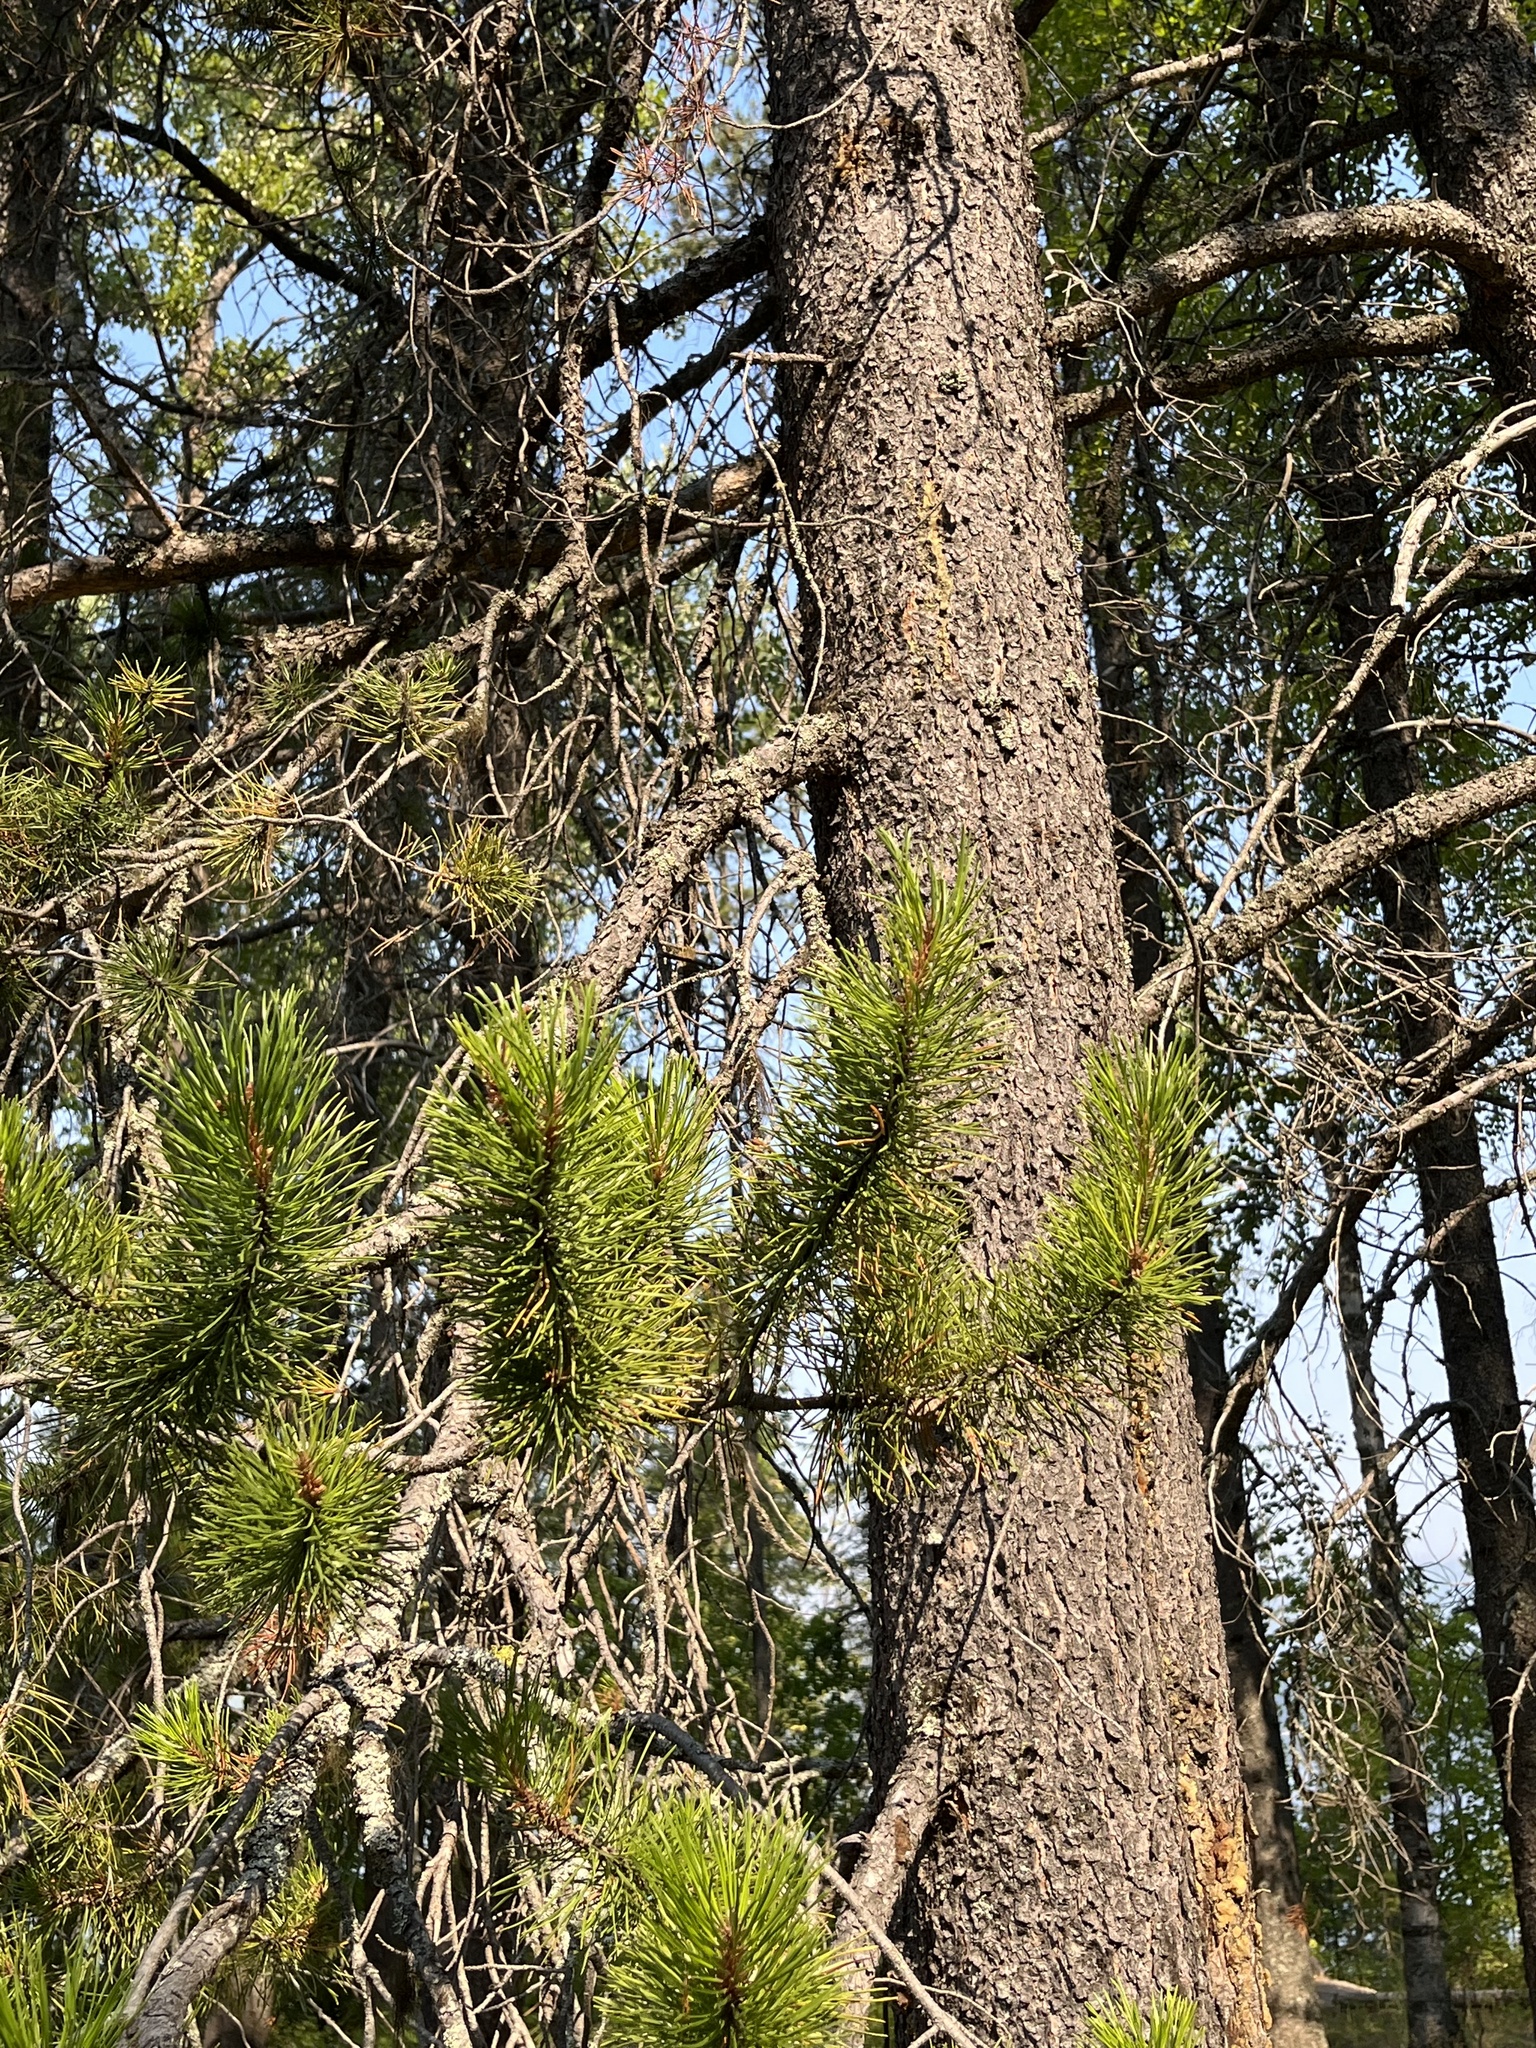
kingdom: Plantae
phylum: Tracheophyta
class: Pinopsida
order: Pinales
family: Pinaceae
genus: Pinus
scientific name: Pinus contorta
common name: Lodgepole pine
